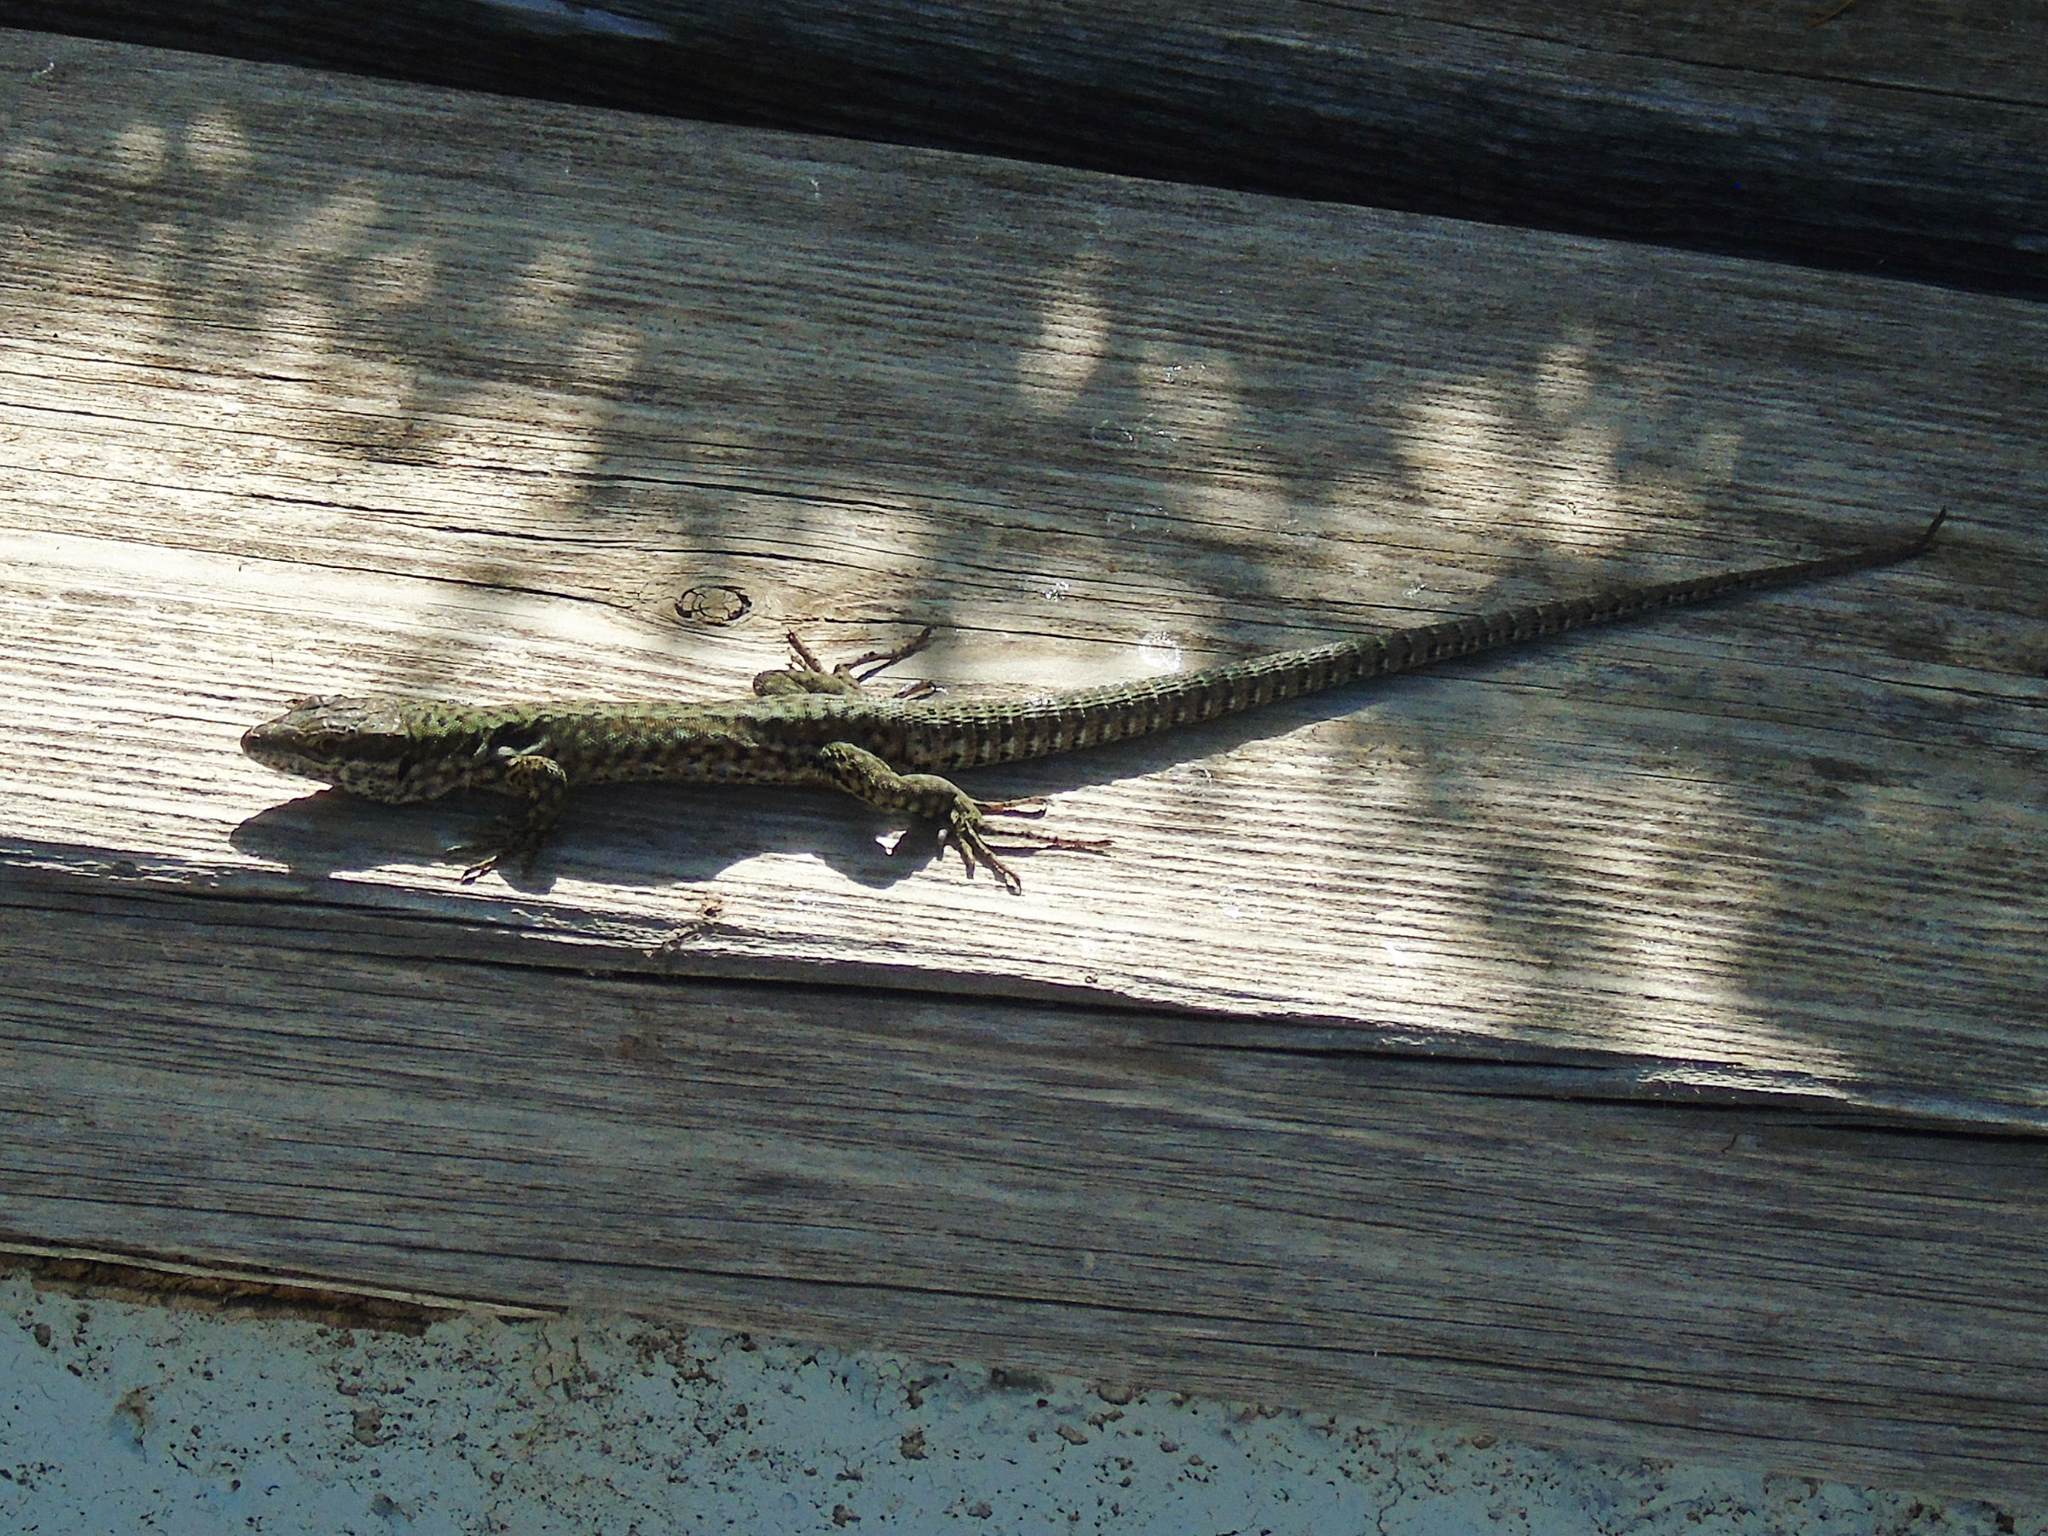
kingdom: Animalia
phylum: Chordata
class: Squamata
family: Lacertidae
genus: Podarcis
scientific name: Podarcis muralis
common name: Common wall lizard
